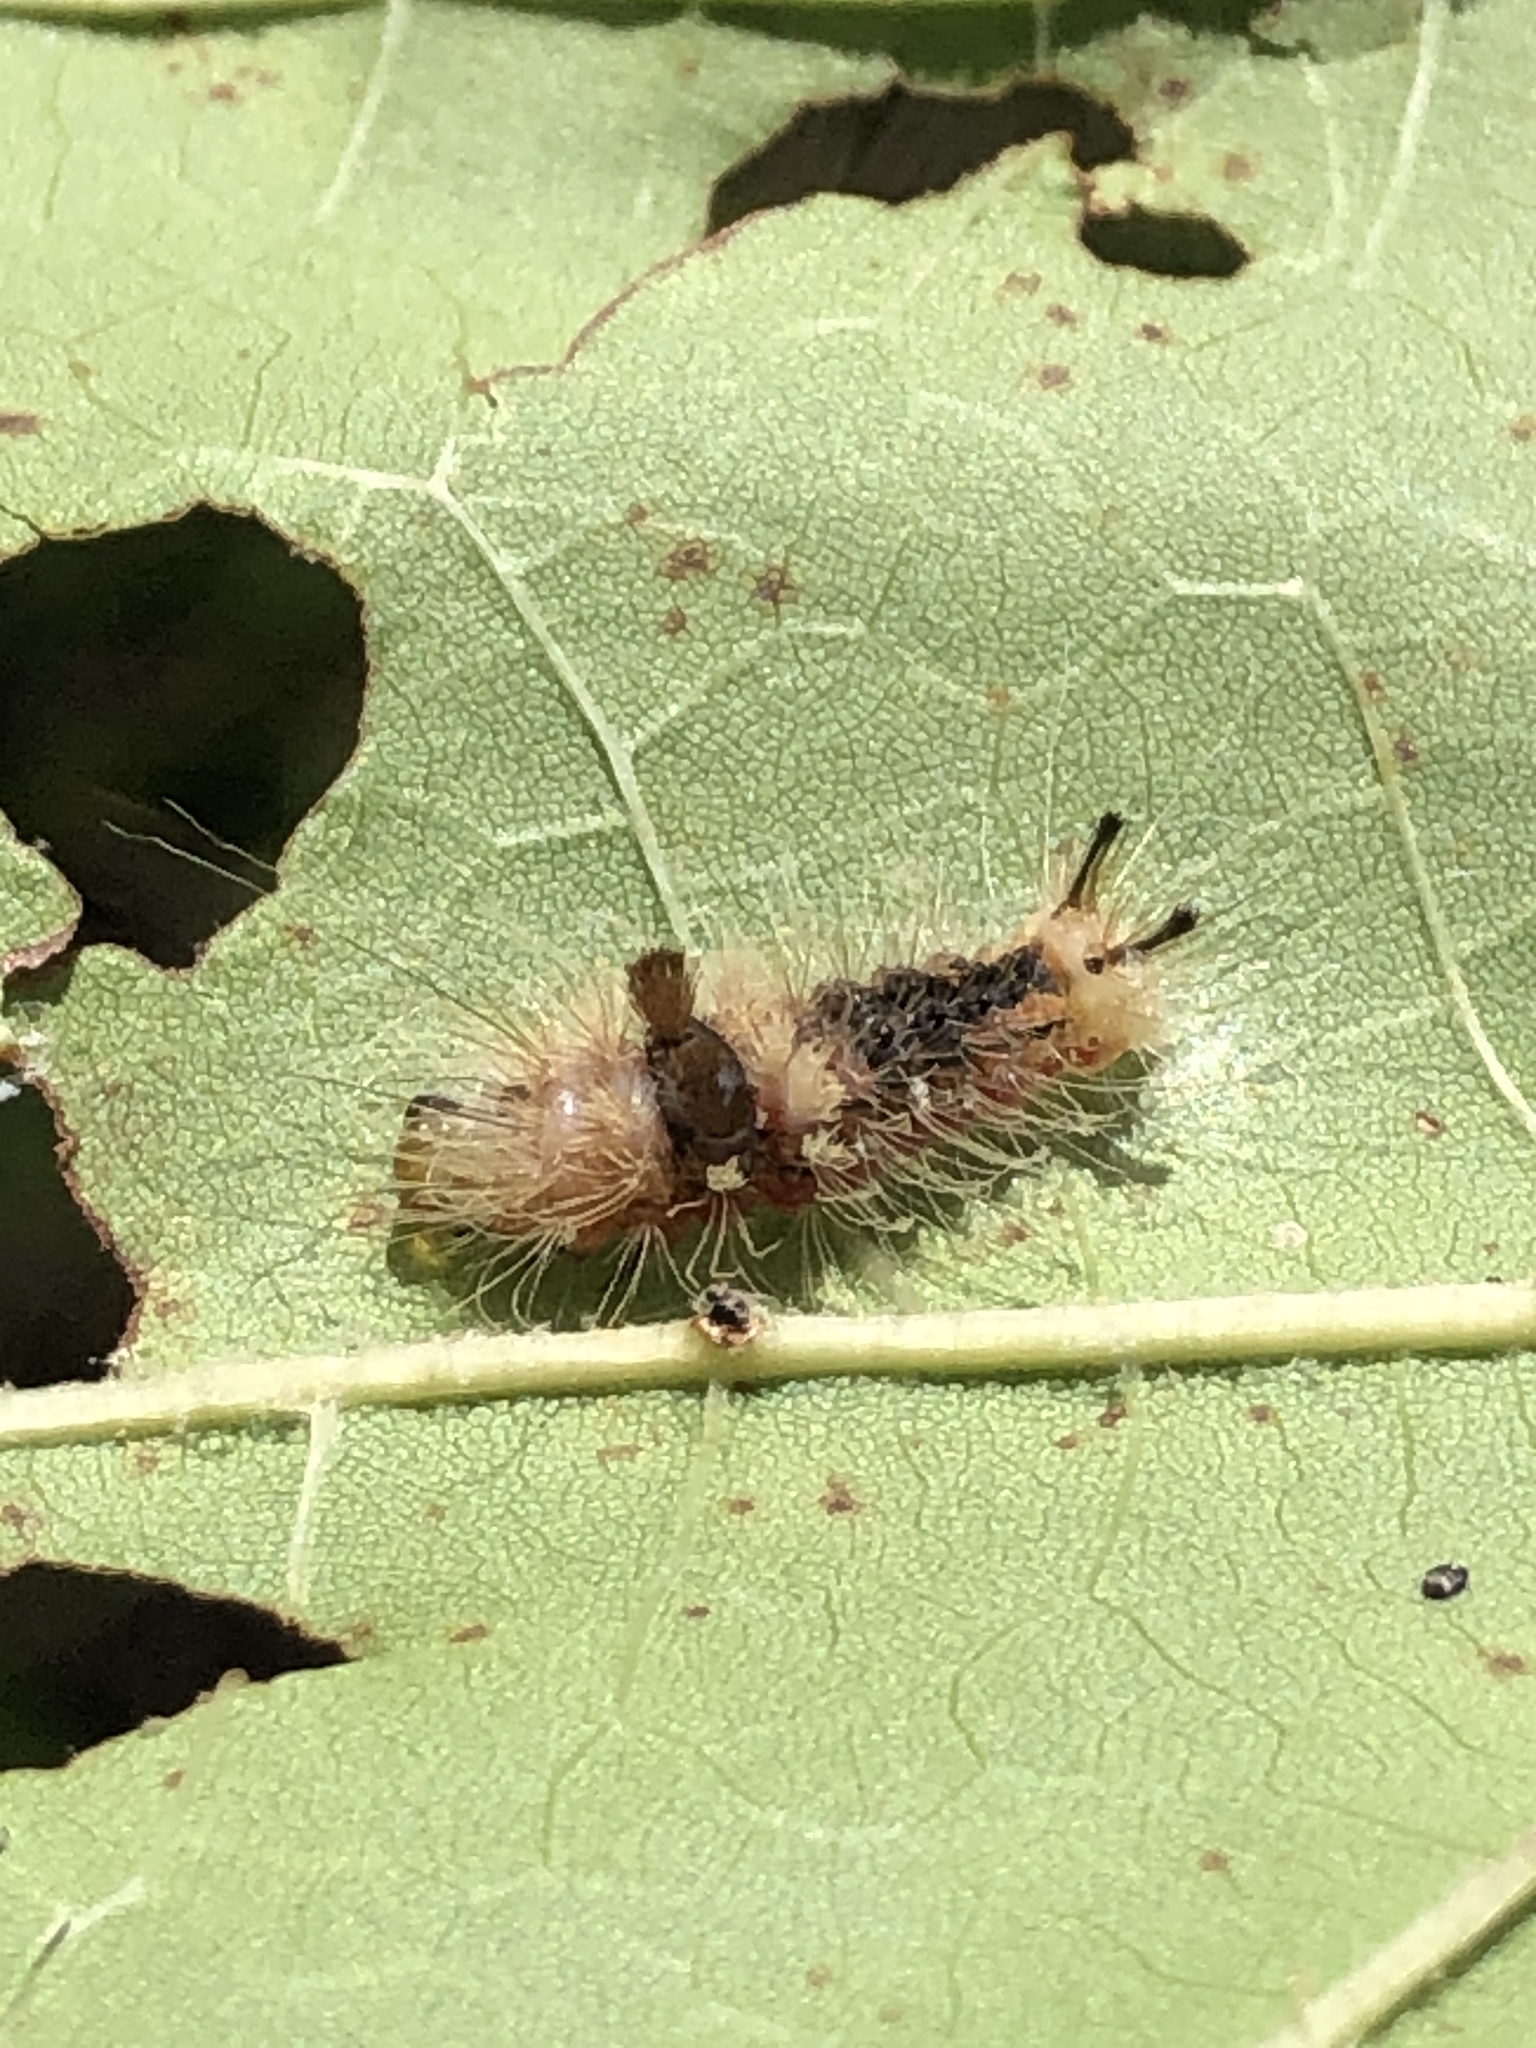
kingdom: Animalia
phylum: Arthropoda
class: Insecta
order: Lepidoptera
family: Noctuidae
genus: Acronicta
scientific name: Acronicta impleta
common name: Powdered dagger
